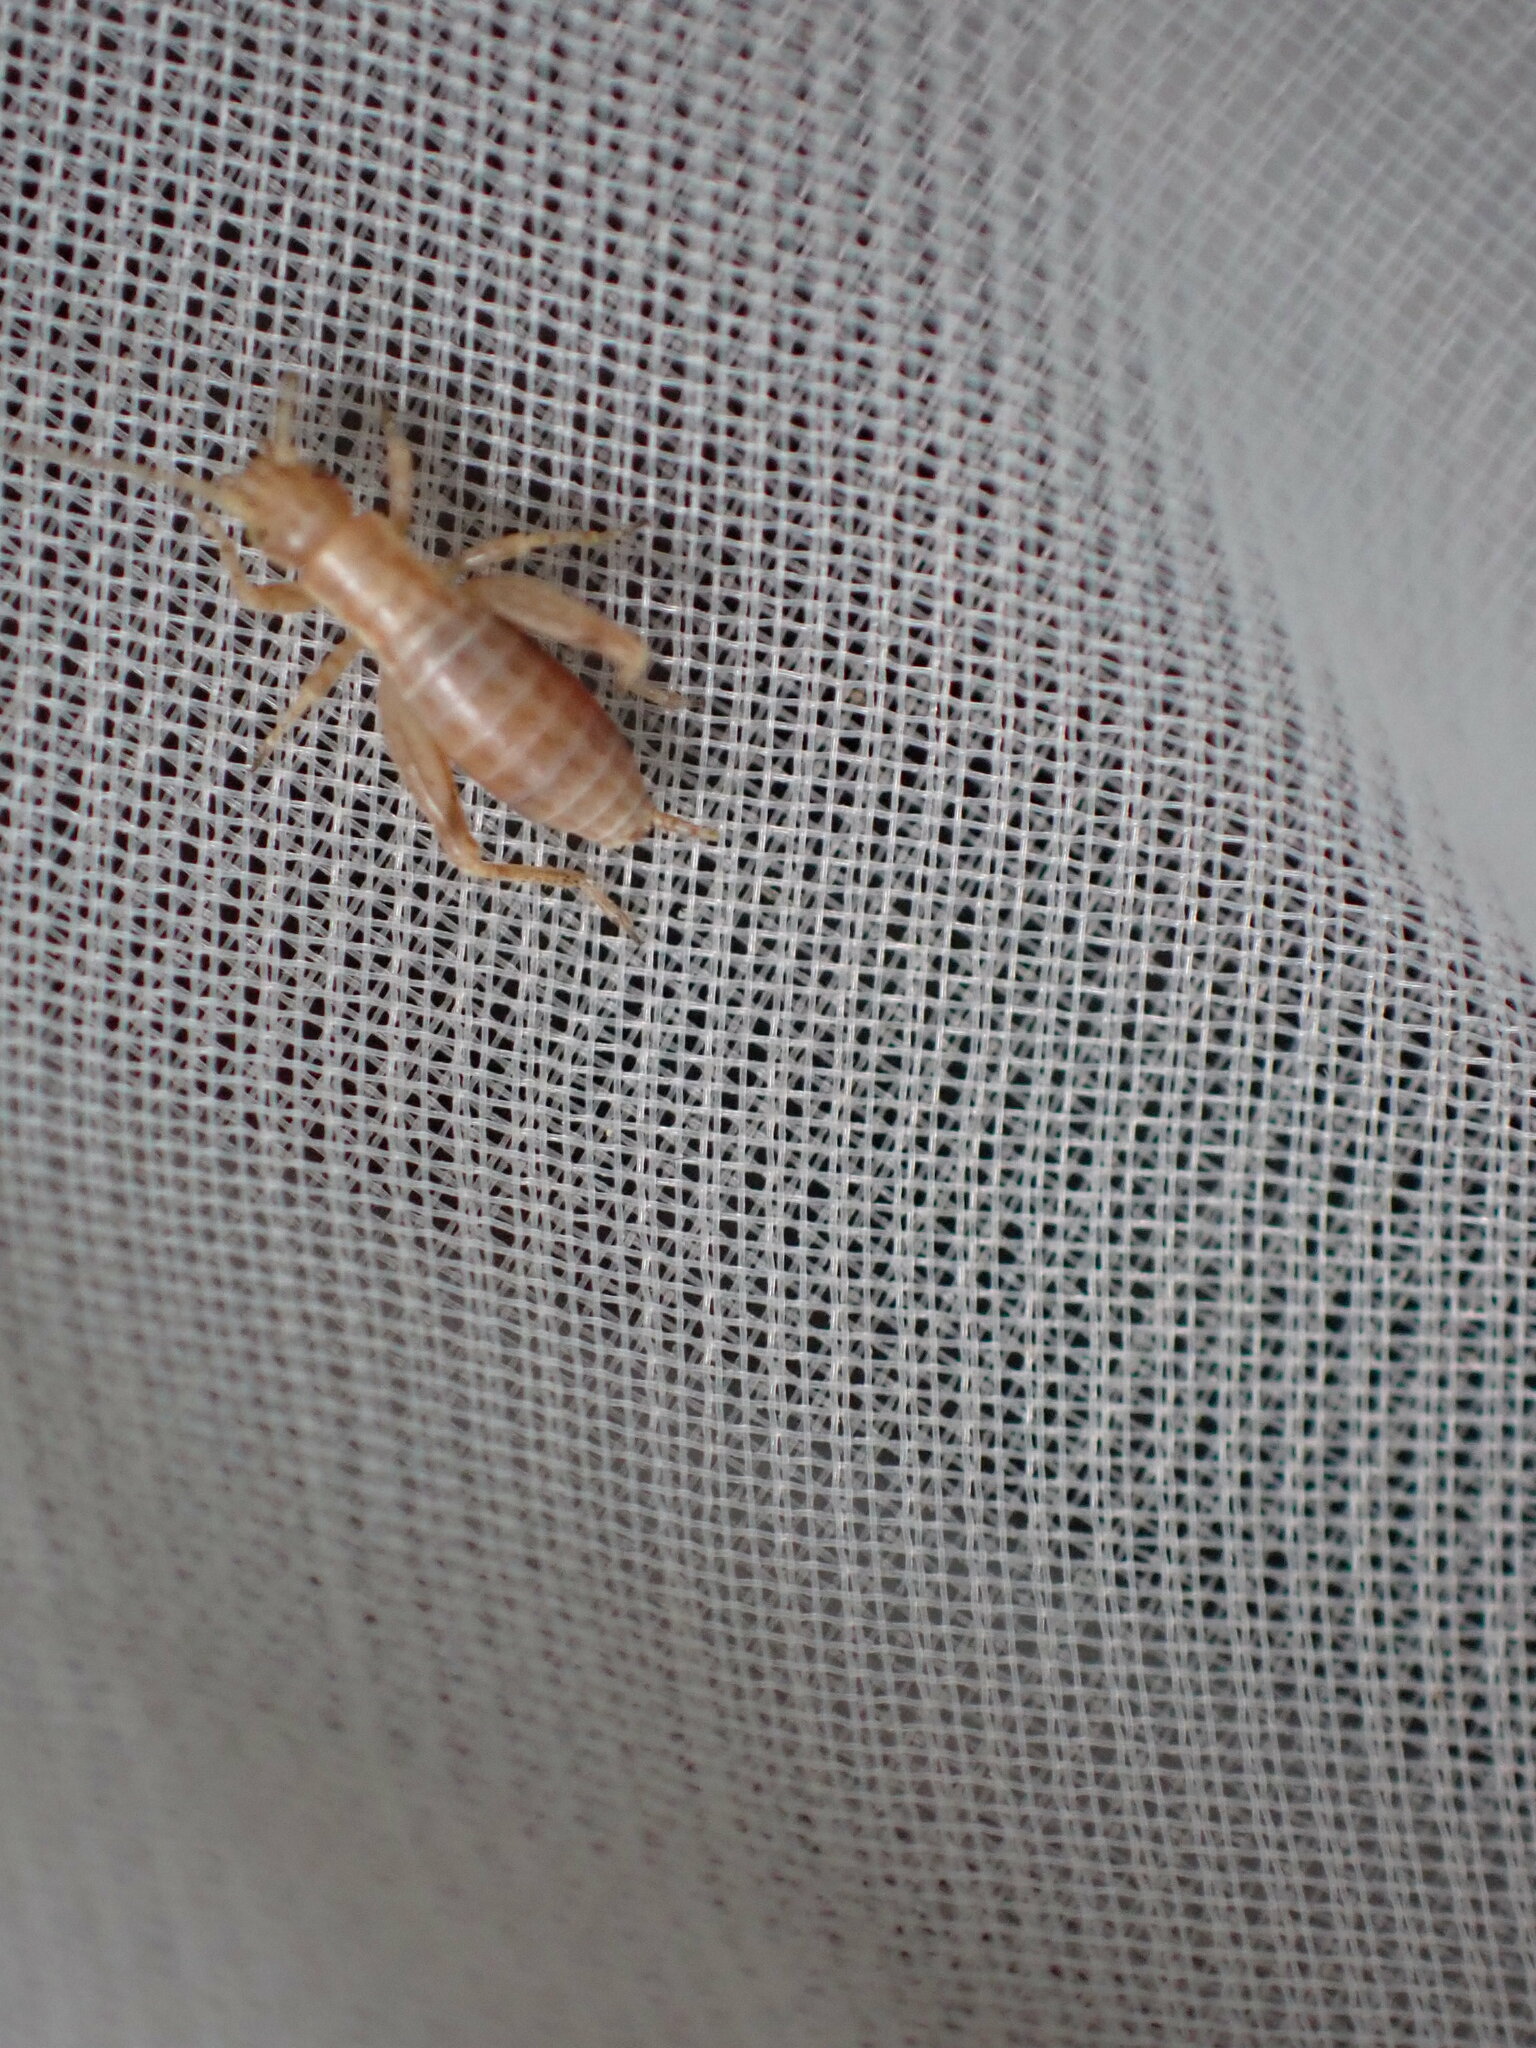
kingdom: Animalia
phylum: Arthropoda
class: Insecta
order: Orthoptera
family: Mogoplistidae
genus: Arachnocephalus
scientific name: Arachnocephalus vestitus
